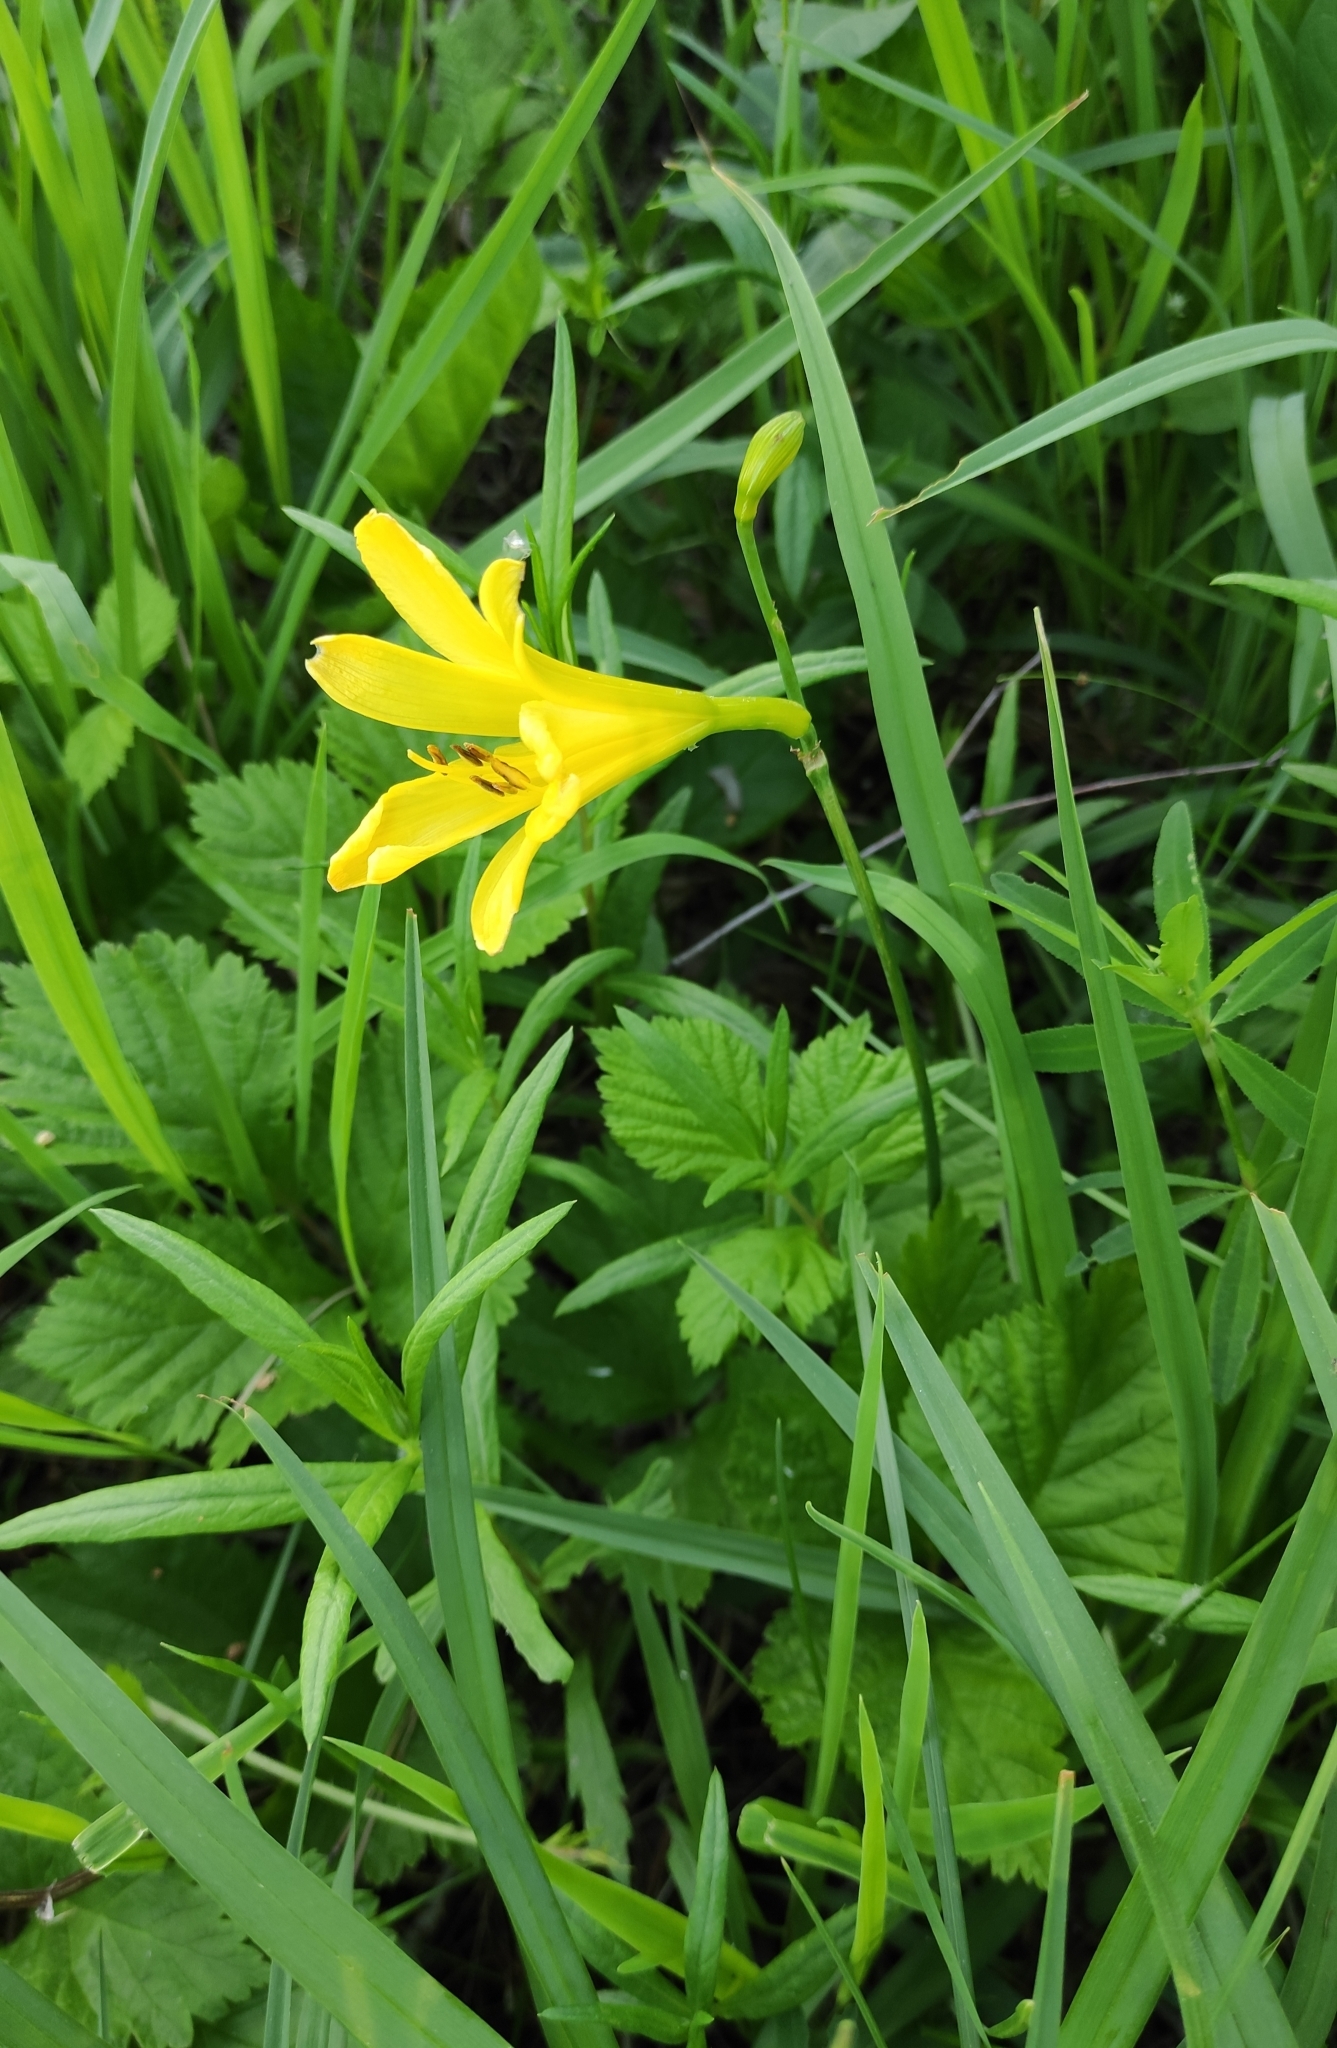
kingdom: Plantae
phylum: Tracheophyta
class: Liliopsida
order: Asparagales
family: Asphodelaceae
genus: Hemerocallis
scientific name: Hemerocallis minor
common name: Small daylily
